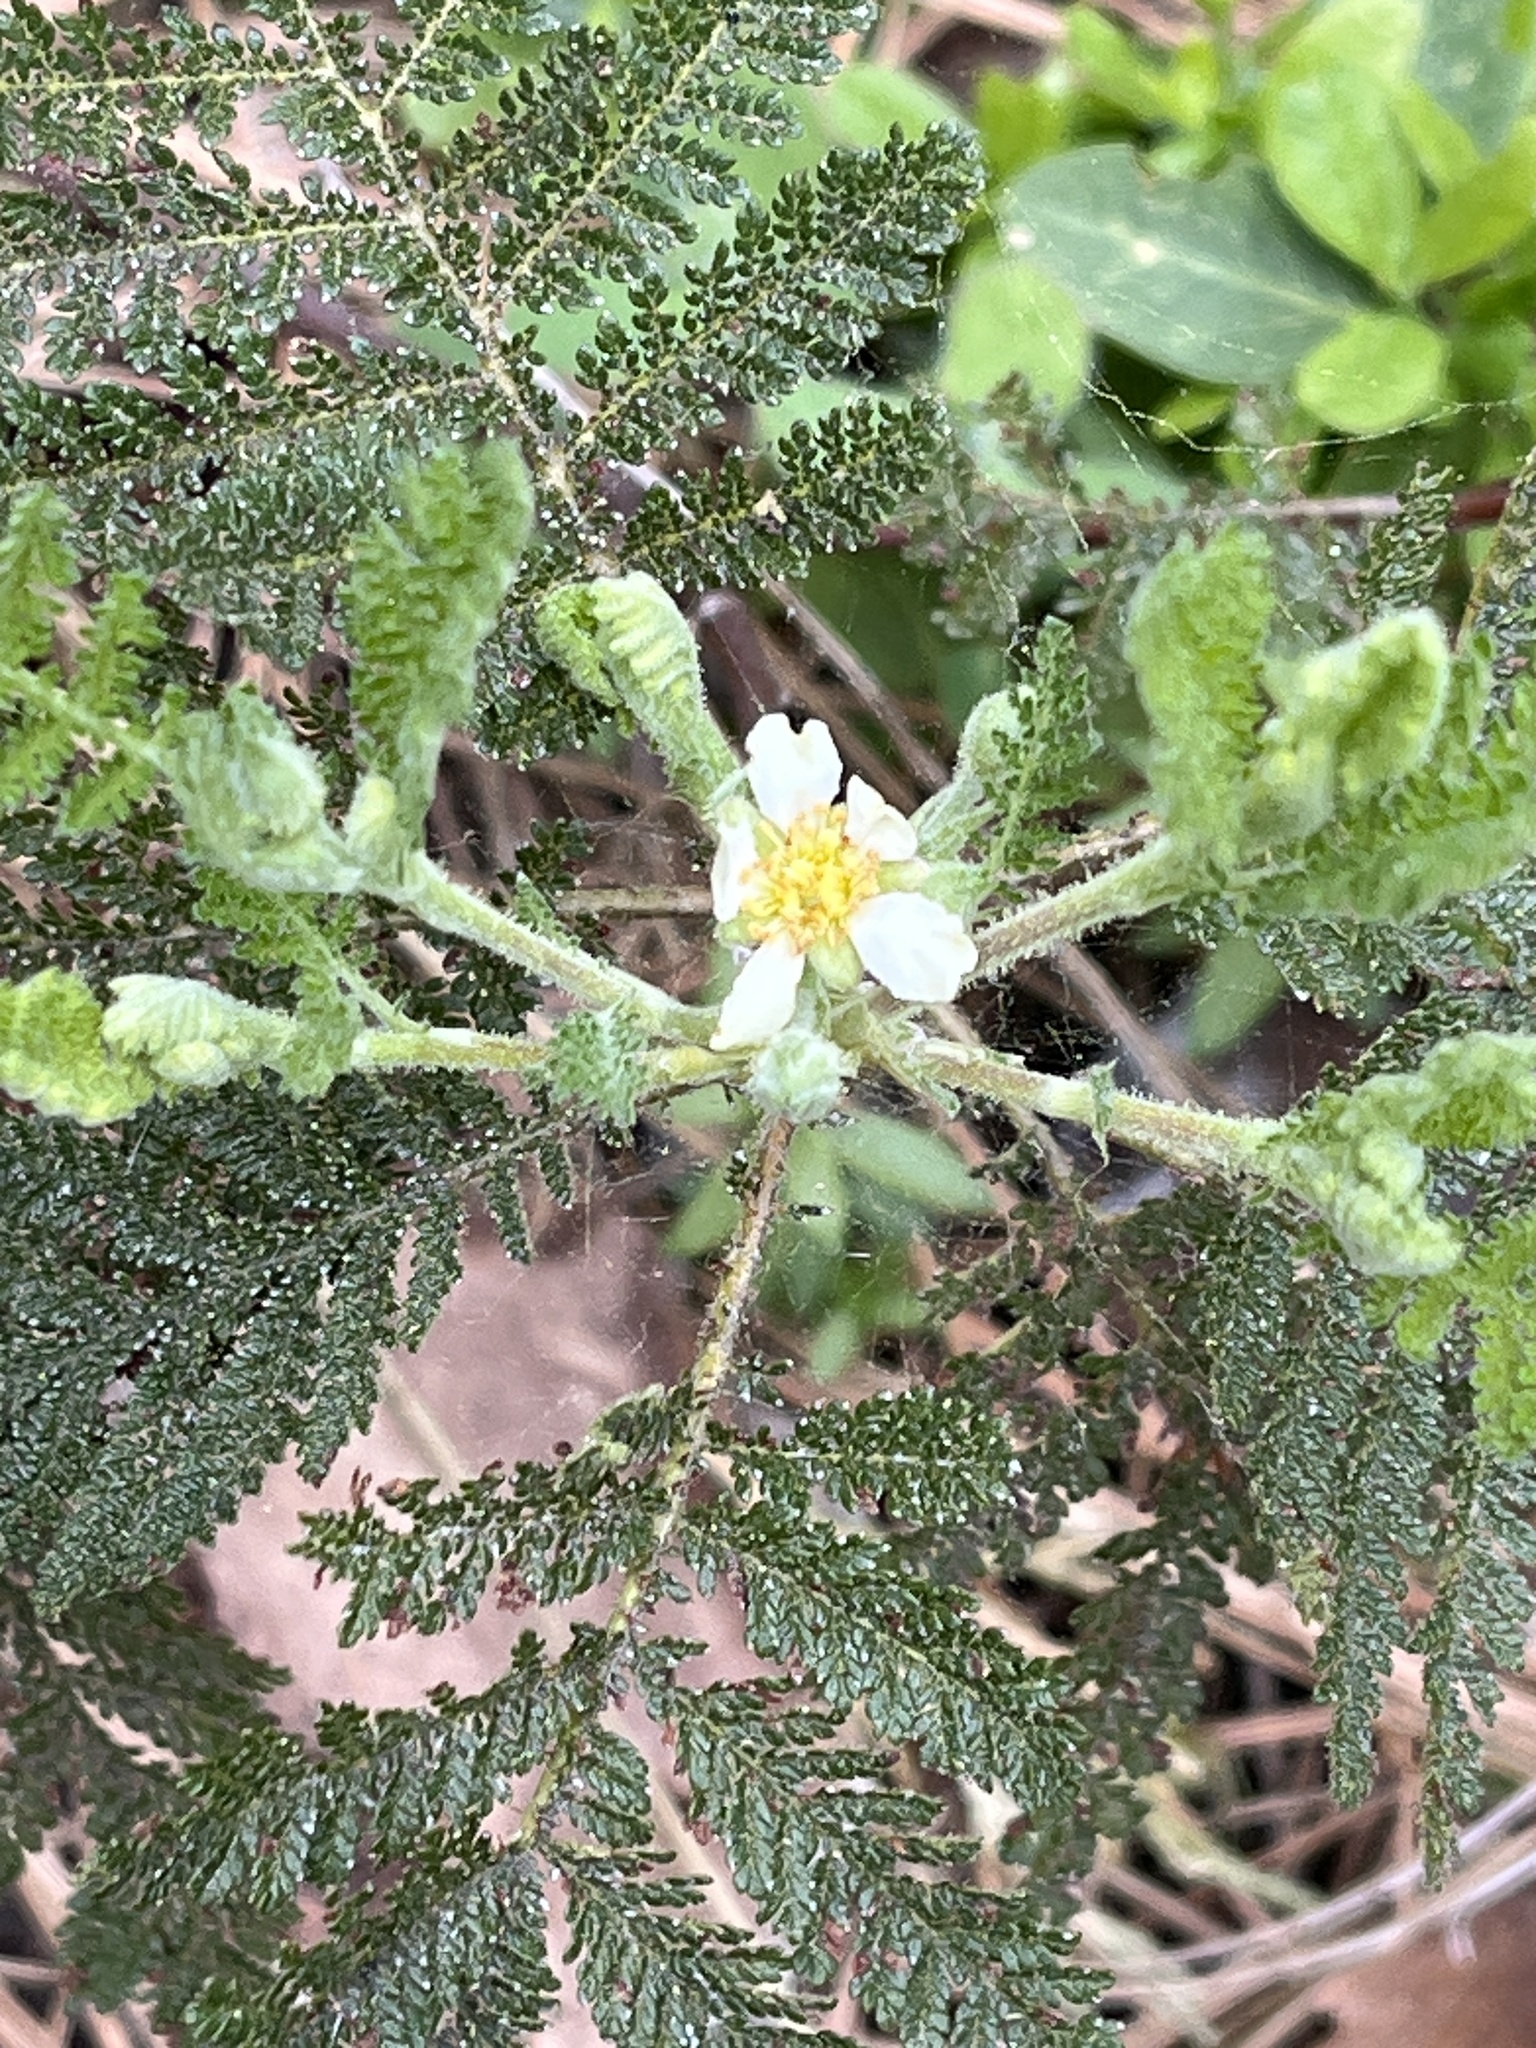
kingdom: Plantae
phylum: Tracheophyta
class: Magnoliopsida
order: Rosales
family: Rosaceae
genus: Chamaebatia
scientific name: Chamaebatia foliolosa
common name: Mountain misery
